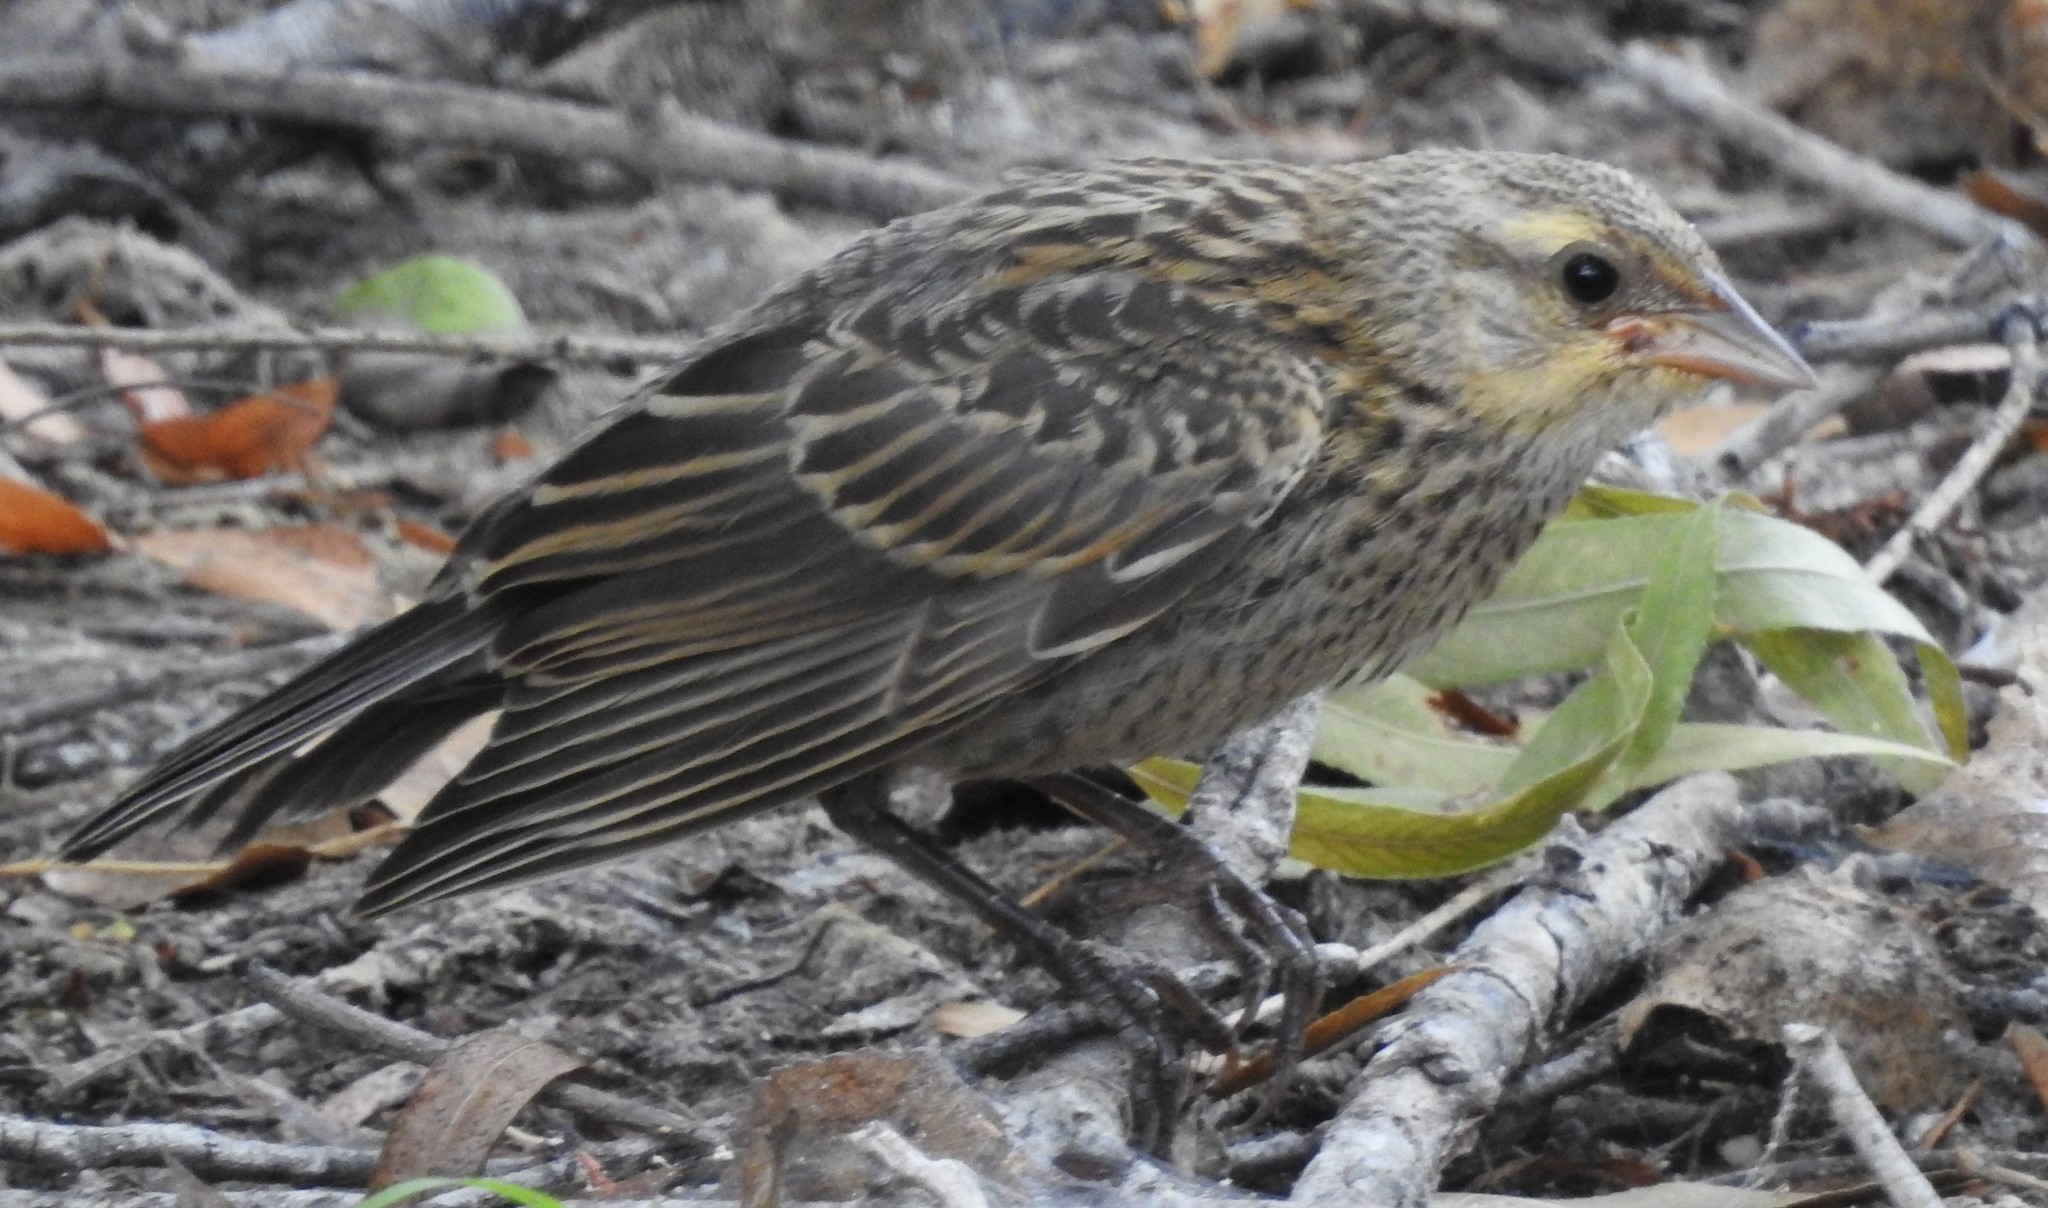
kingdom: Animalia
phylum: Chordata
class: Aves
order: Passeriformes
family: Icteridae
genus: Agelaius
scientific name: Agelaius phoeniceus
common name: Red-winged blackbird
